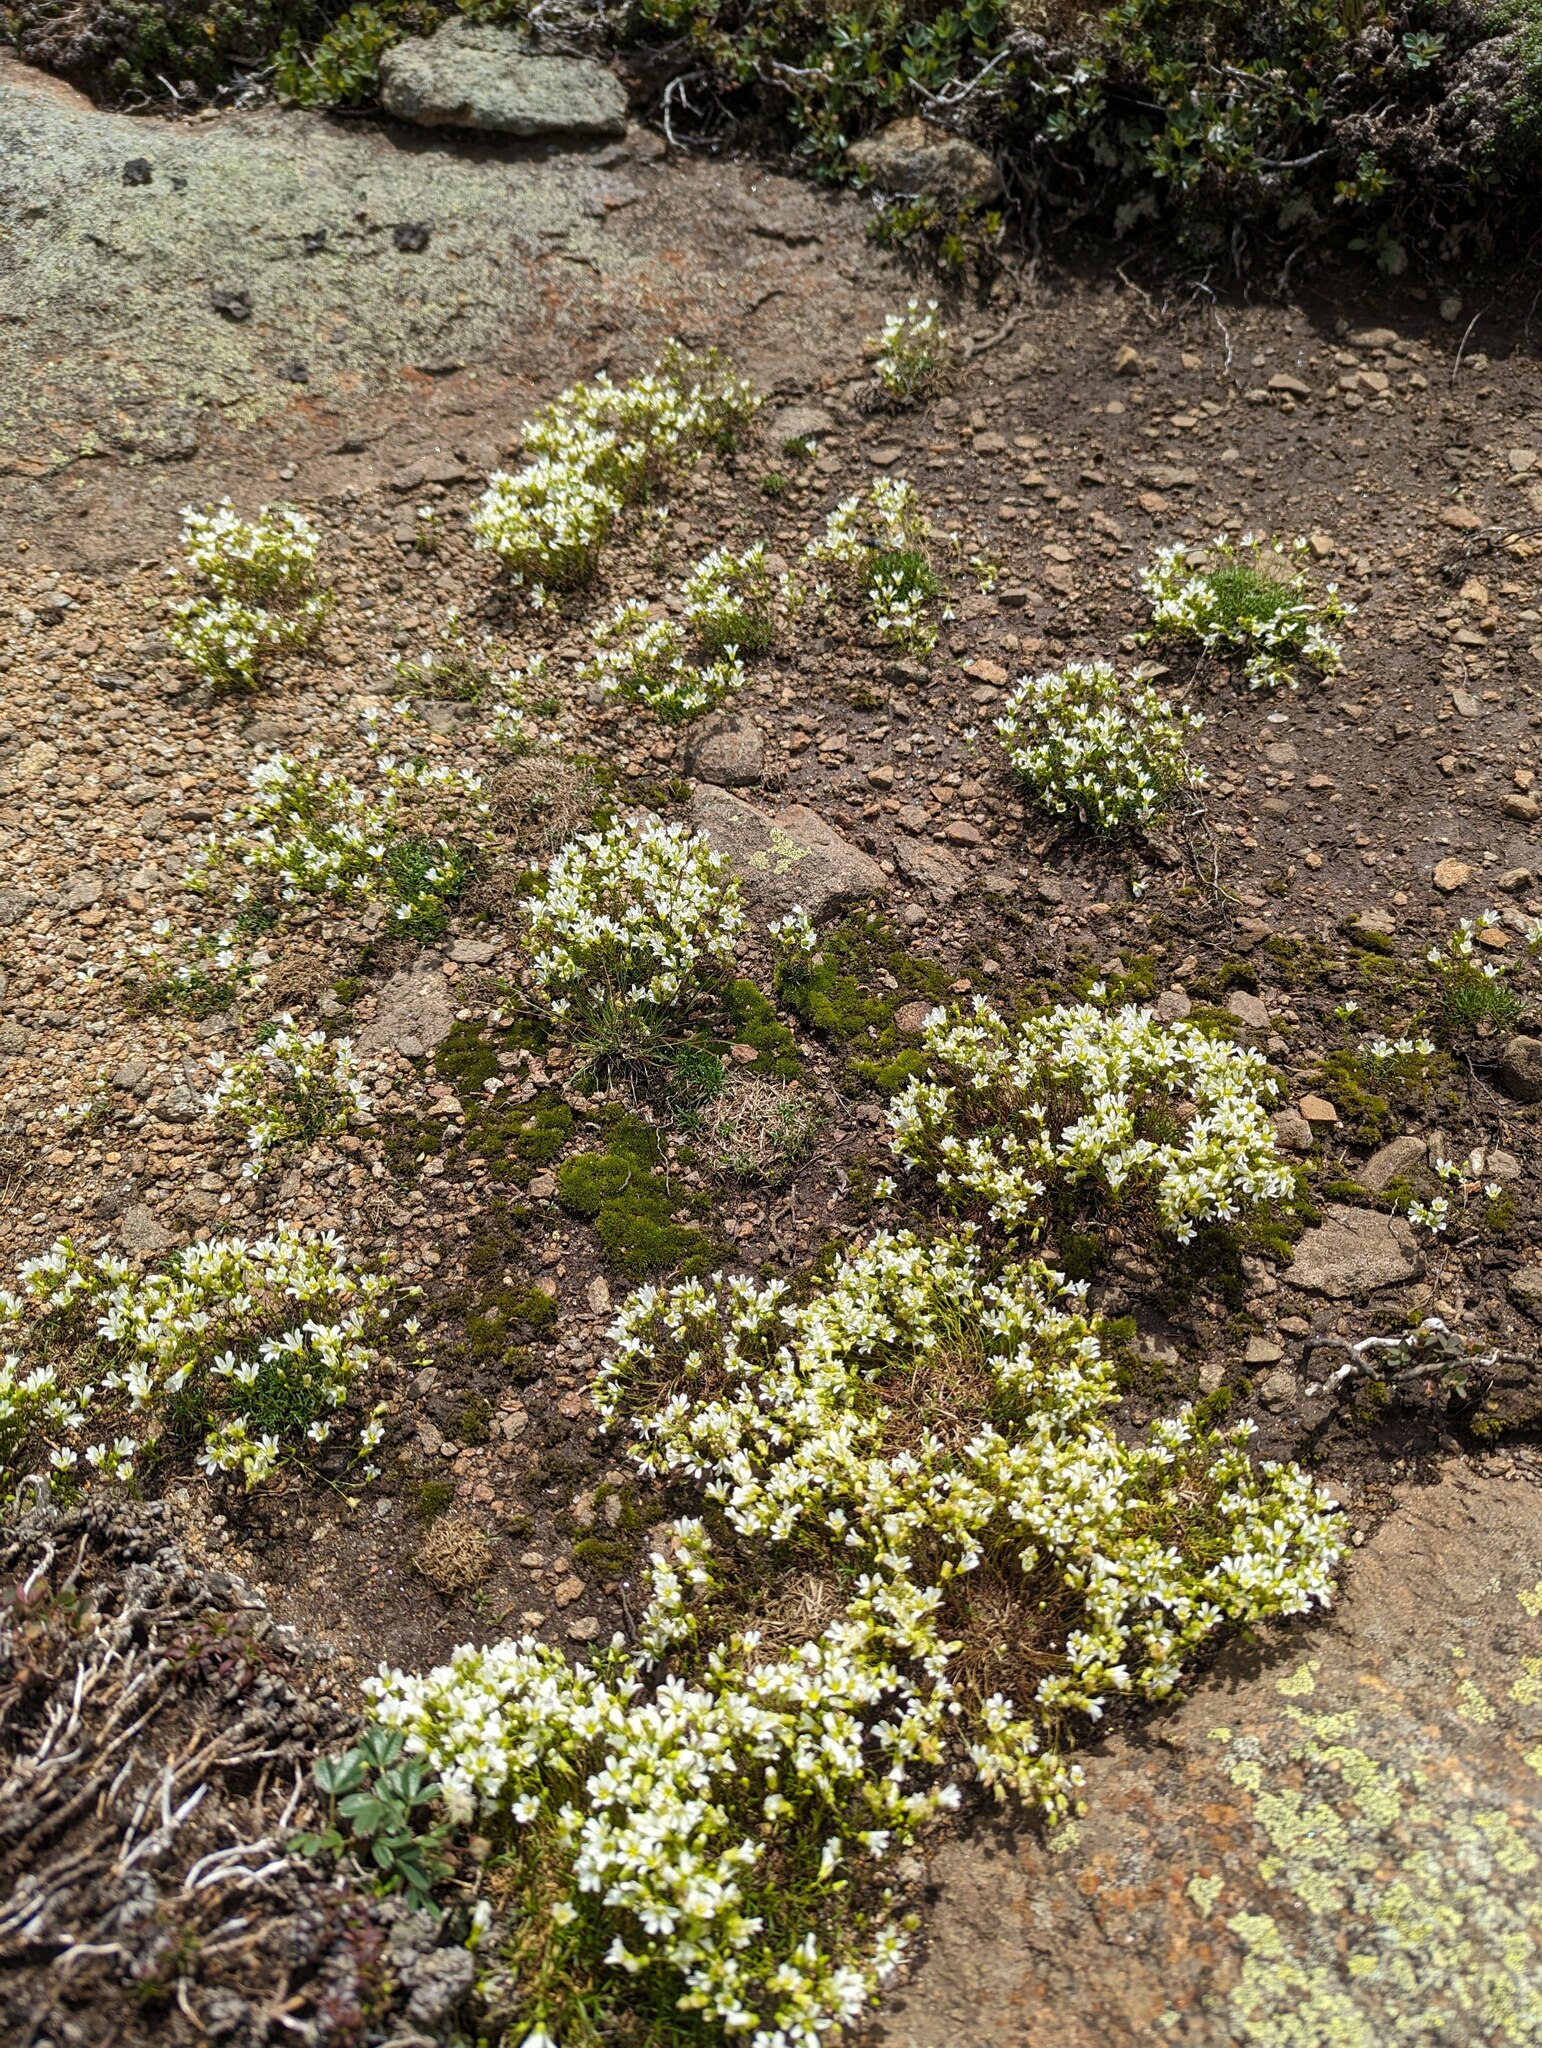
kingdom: Plantae
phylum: Tracheophyta
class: Magnoliopsida
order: Caryophyllales
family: Caryophyllaceae
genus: Geocarpon
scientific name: Geocarpon groenlandicum
